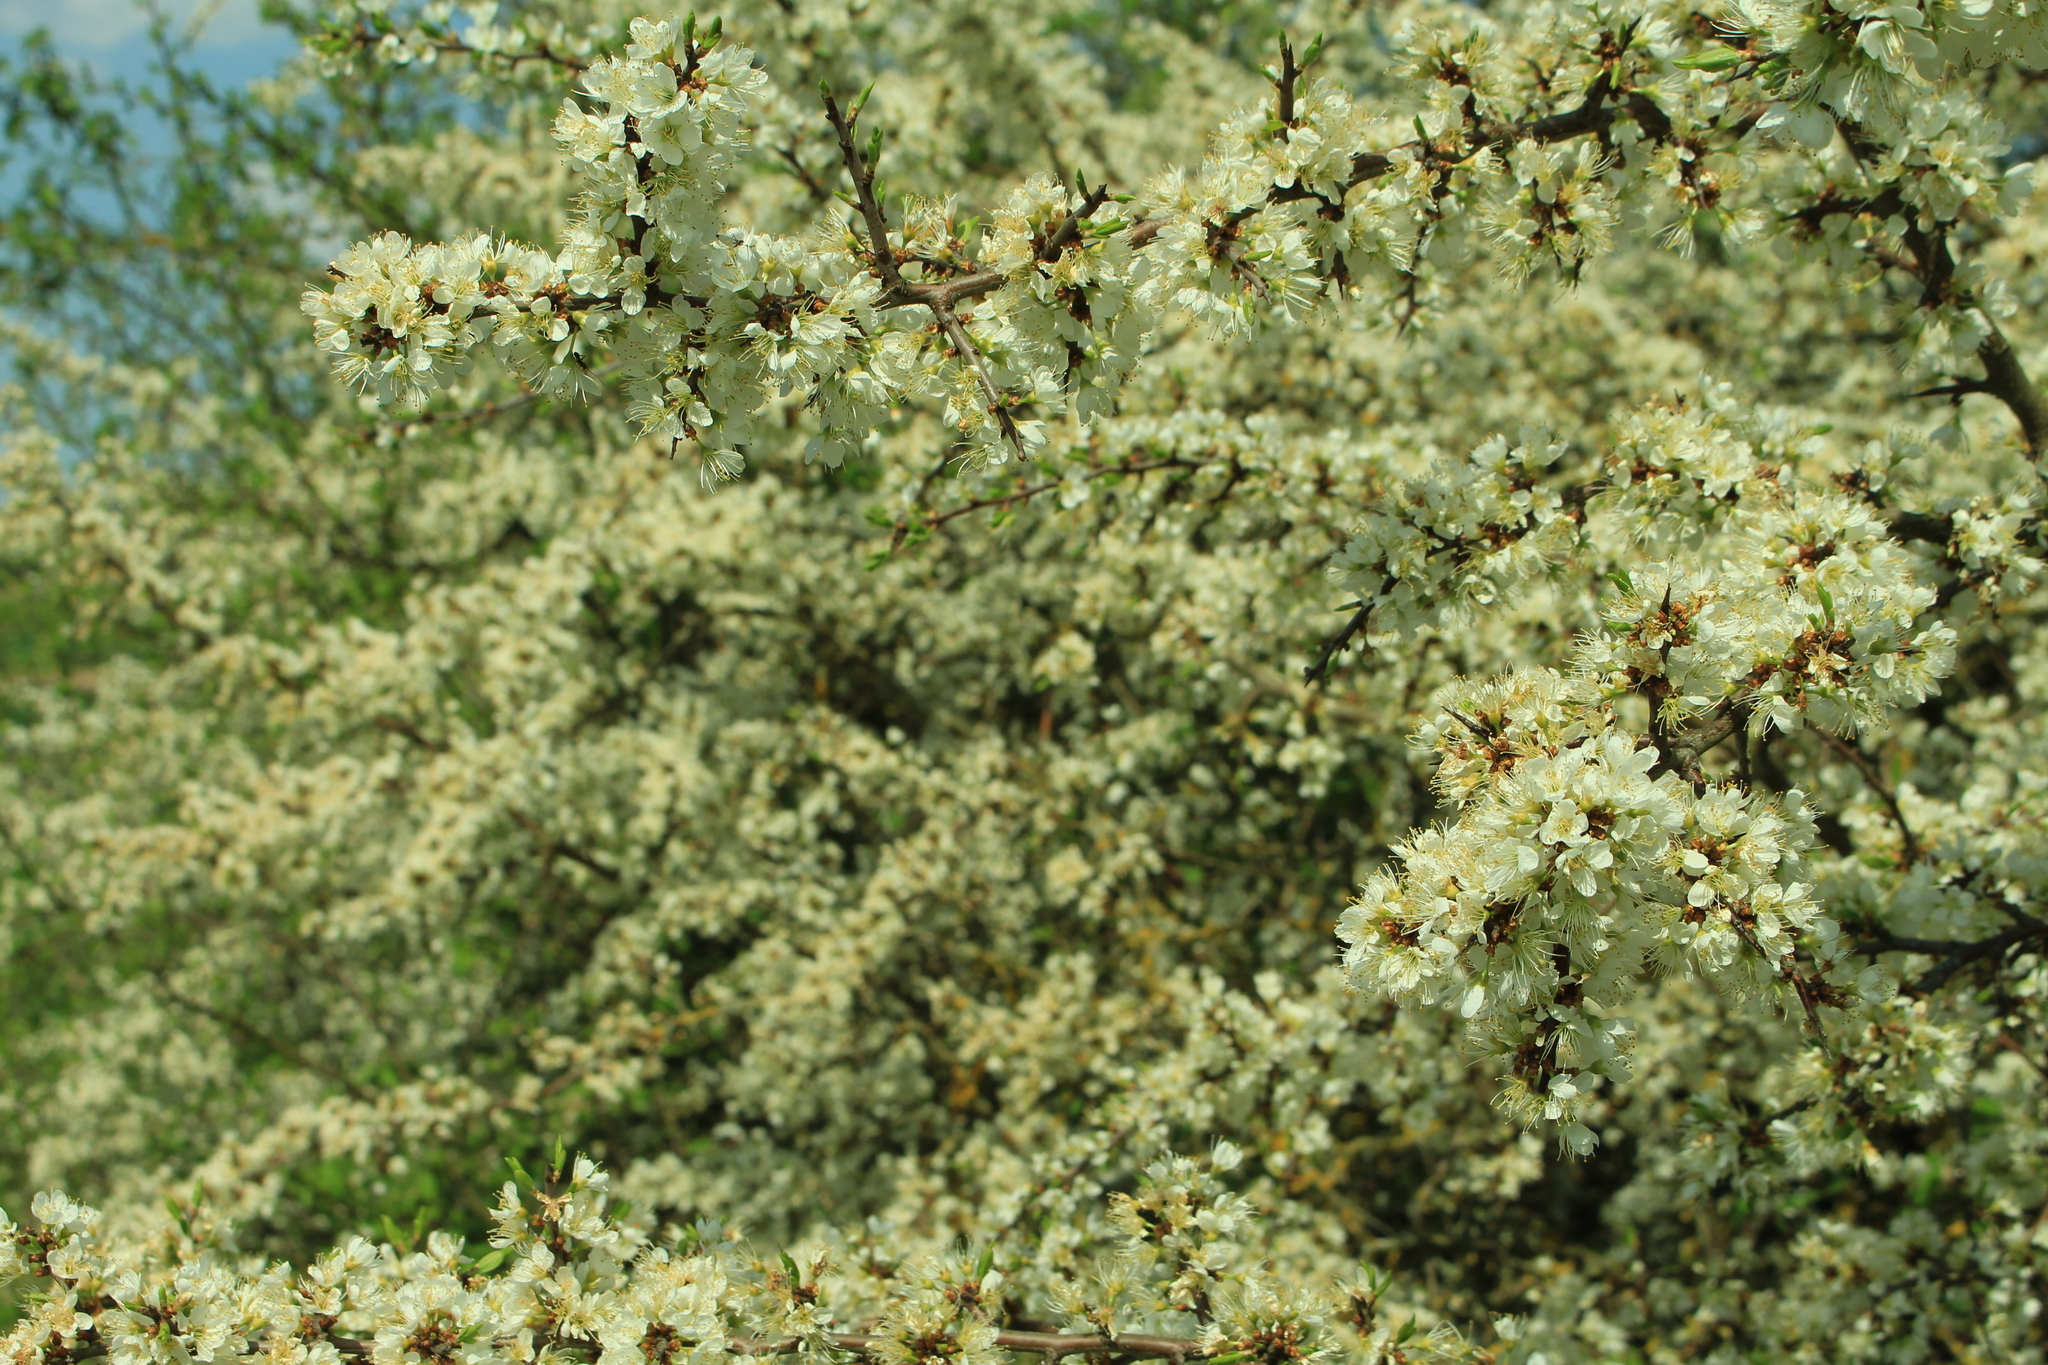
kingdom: Plantae
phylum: Tracheophyta
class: Magnoliopsida
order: Rosales
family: Rosaceae
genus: Prunus
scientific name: Prunus spinosa
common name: Blackthorn
